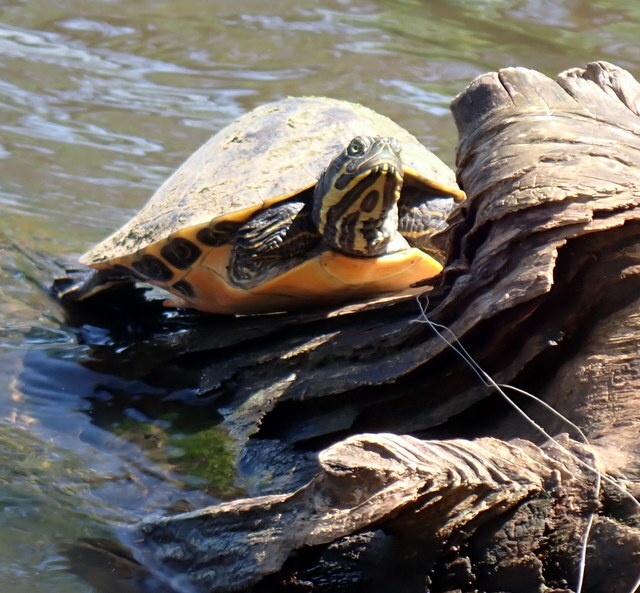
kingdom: Animalia
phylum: Chordata
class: Testudines
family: Emydidae
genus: Pseudemys
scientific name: Pseudemys concinna
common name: Eastern river cooter
